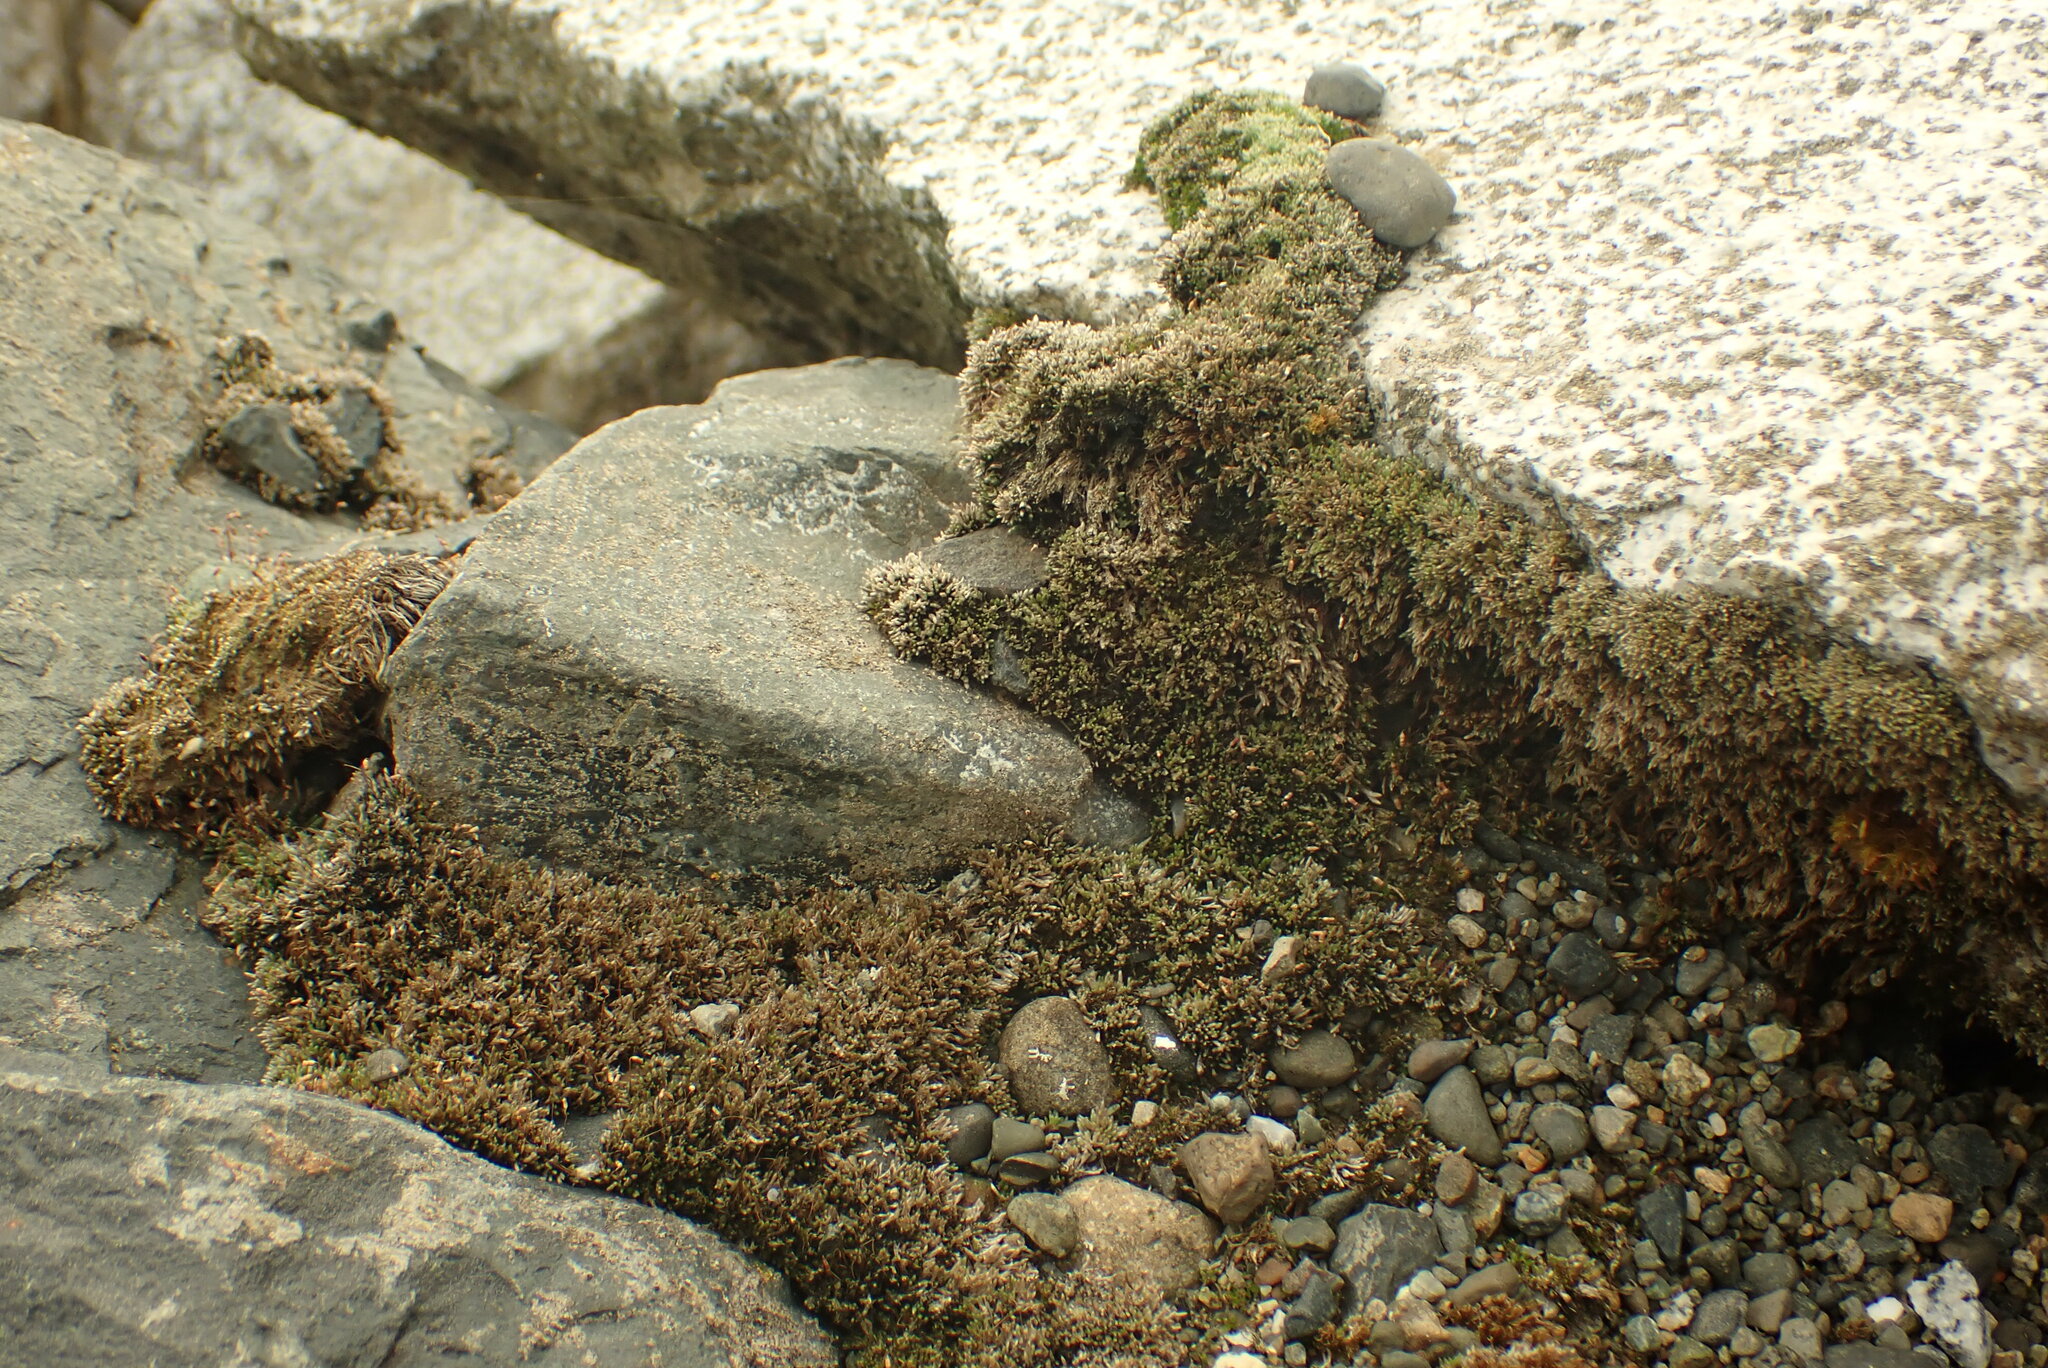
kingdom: Plantae
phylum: Bryophyta
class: Bryopsida
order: Bryales
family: Bryaceae
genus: Bryum
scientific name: Bryum argenteum
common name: Silver-moss
